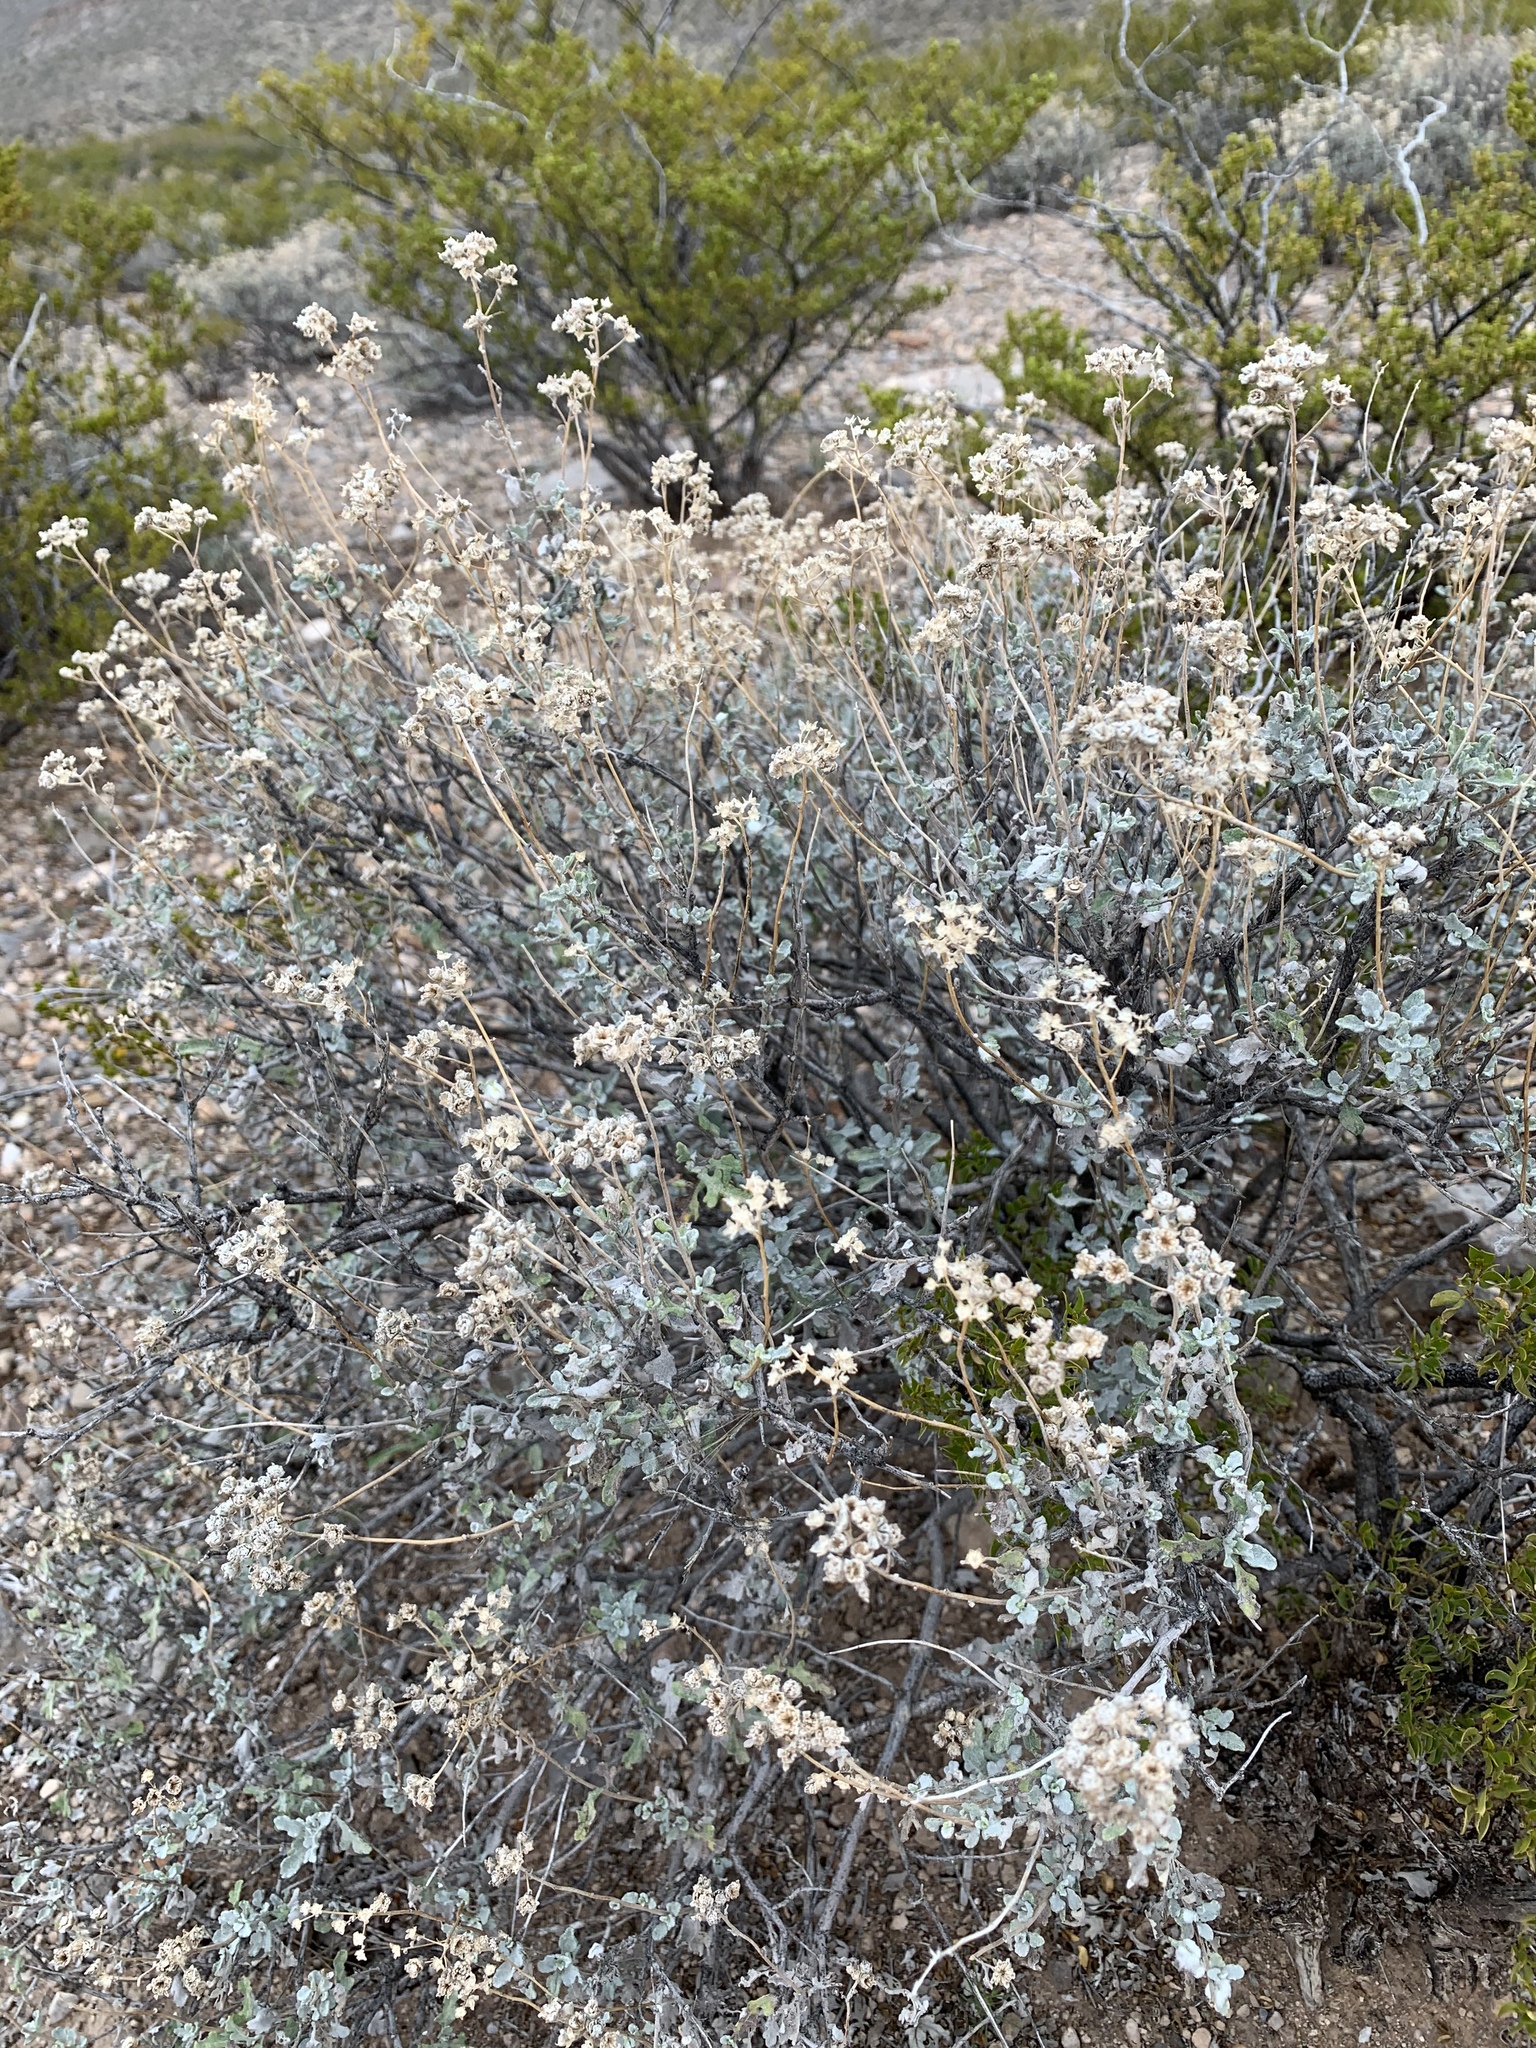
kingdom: Plantae
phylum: Tracheophyta
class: Magnoliopsida
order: Asterales
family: Asteraceae
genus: Parthenium
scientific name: Parthenium incanum
